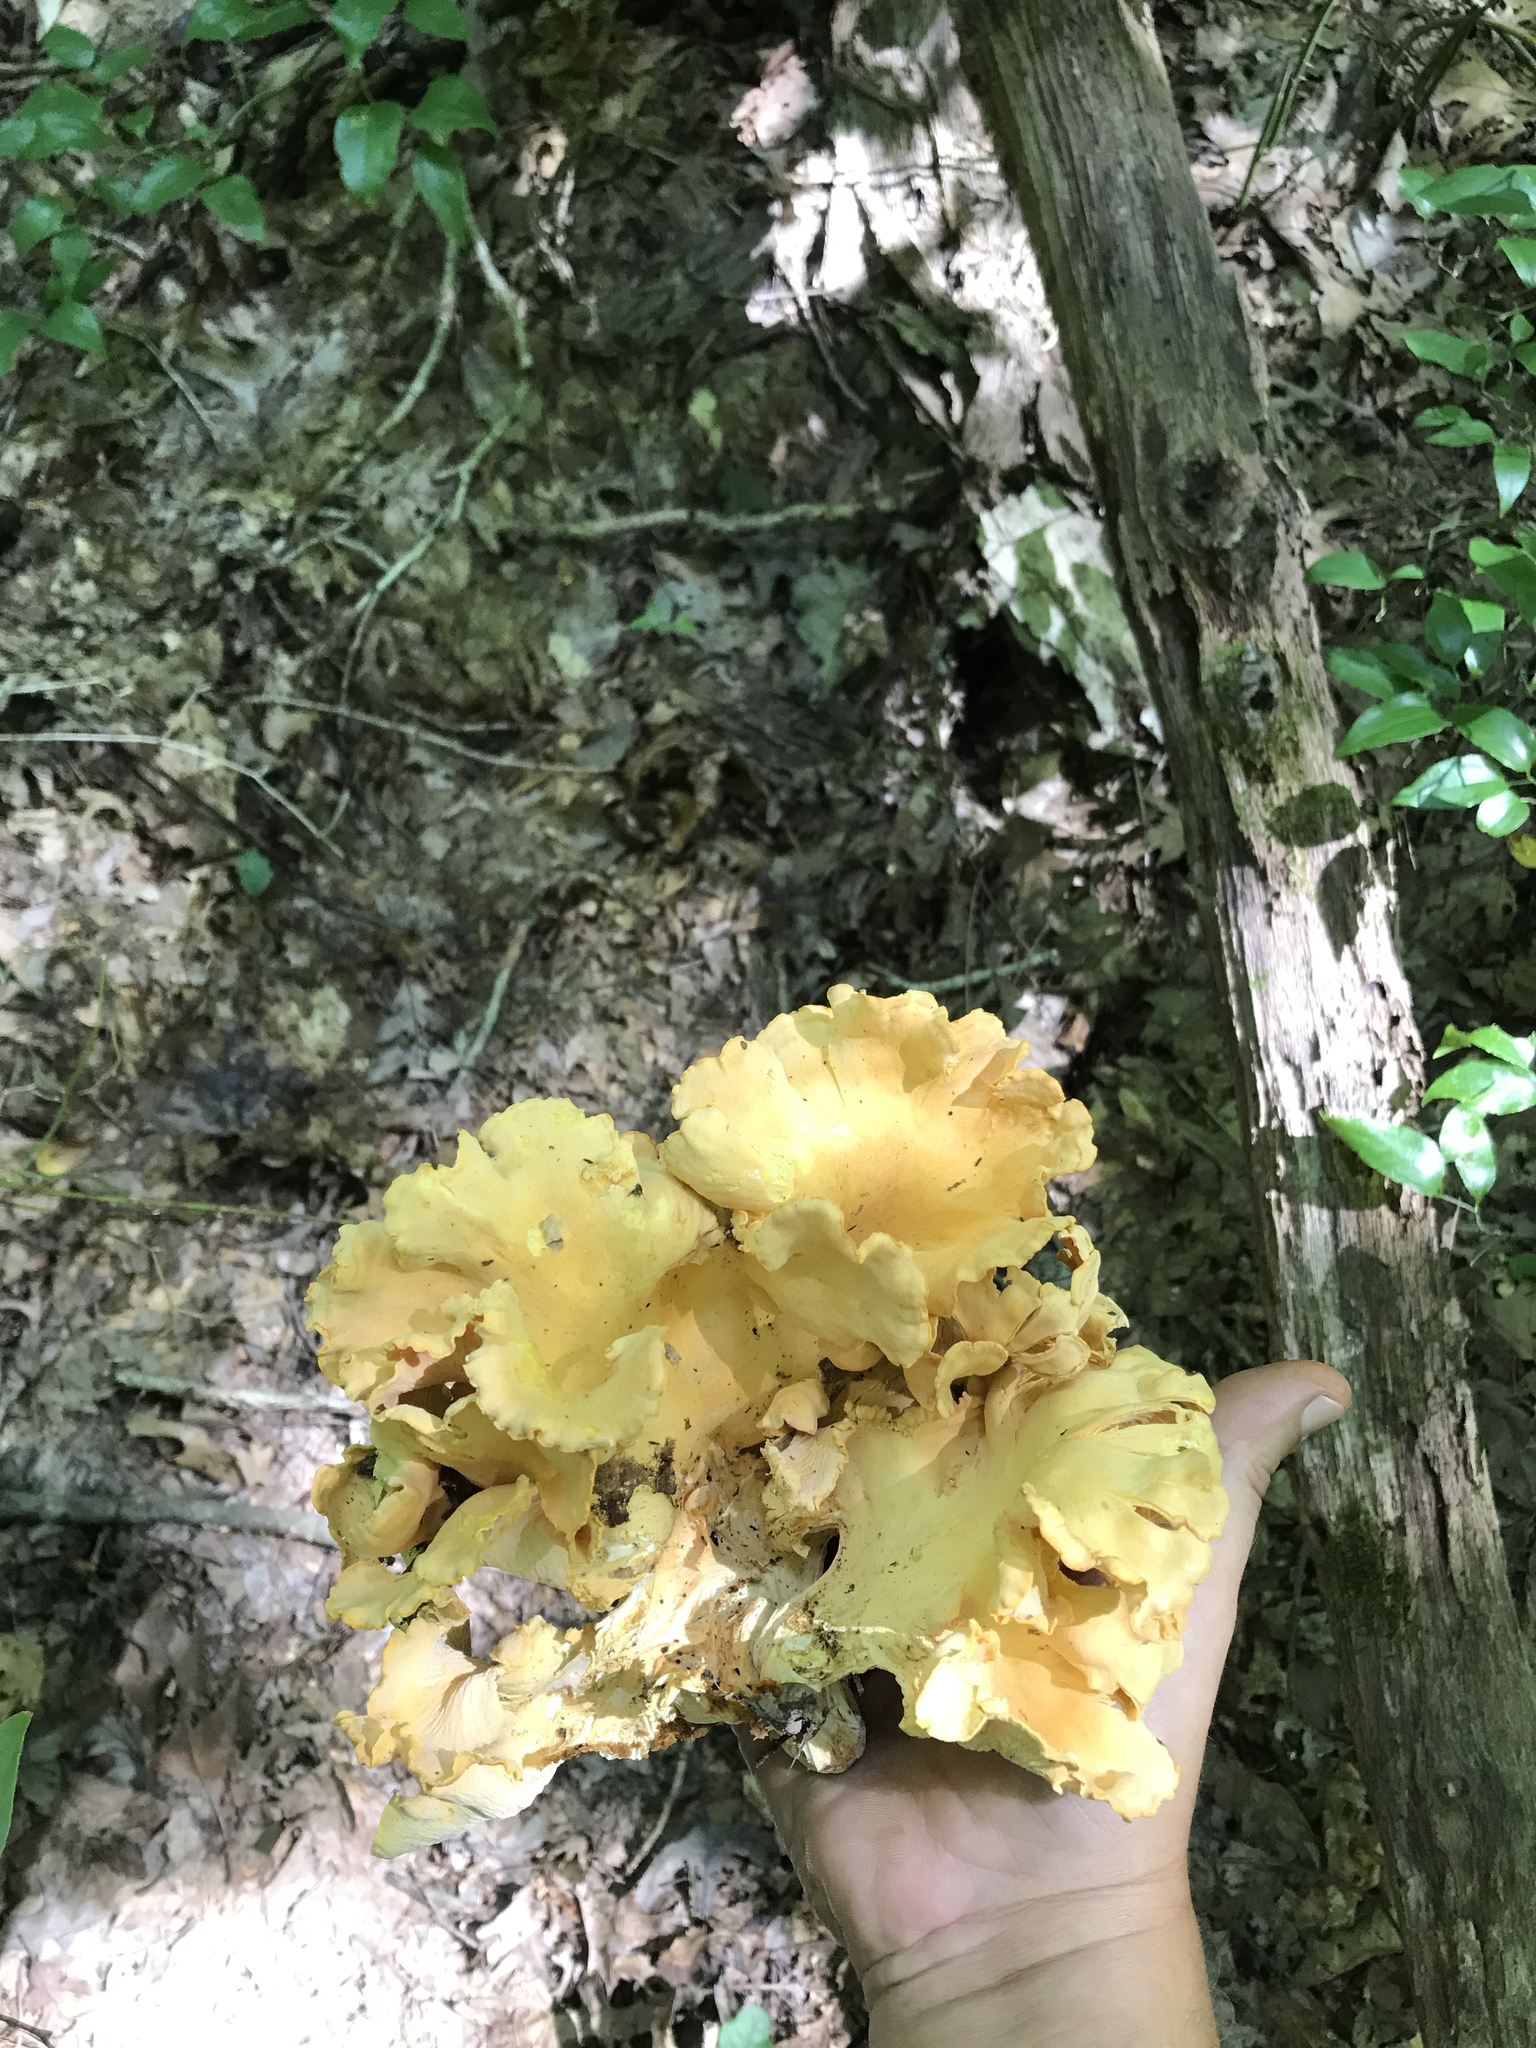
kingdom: Fungi
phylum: Basidiomycota
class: Agaricomycetes
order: Cantharellales
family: Hydnaceae
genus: Cantharellus
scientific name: Cantharellus flavolateritius
